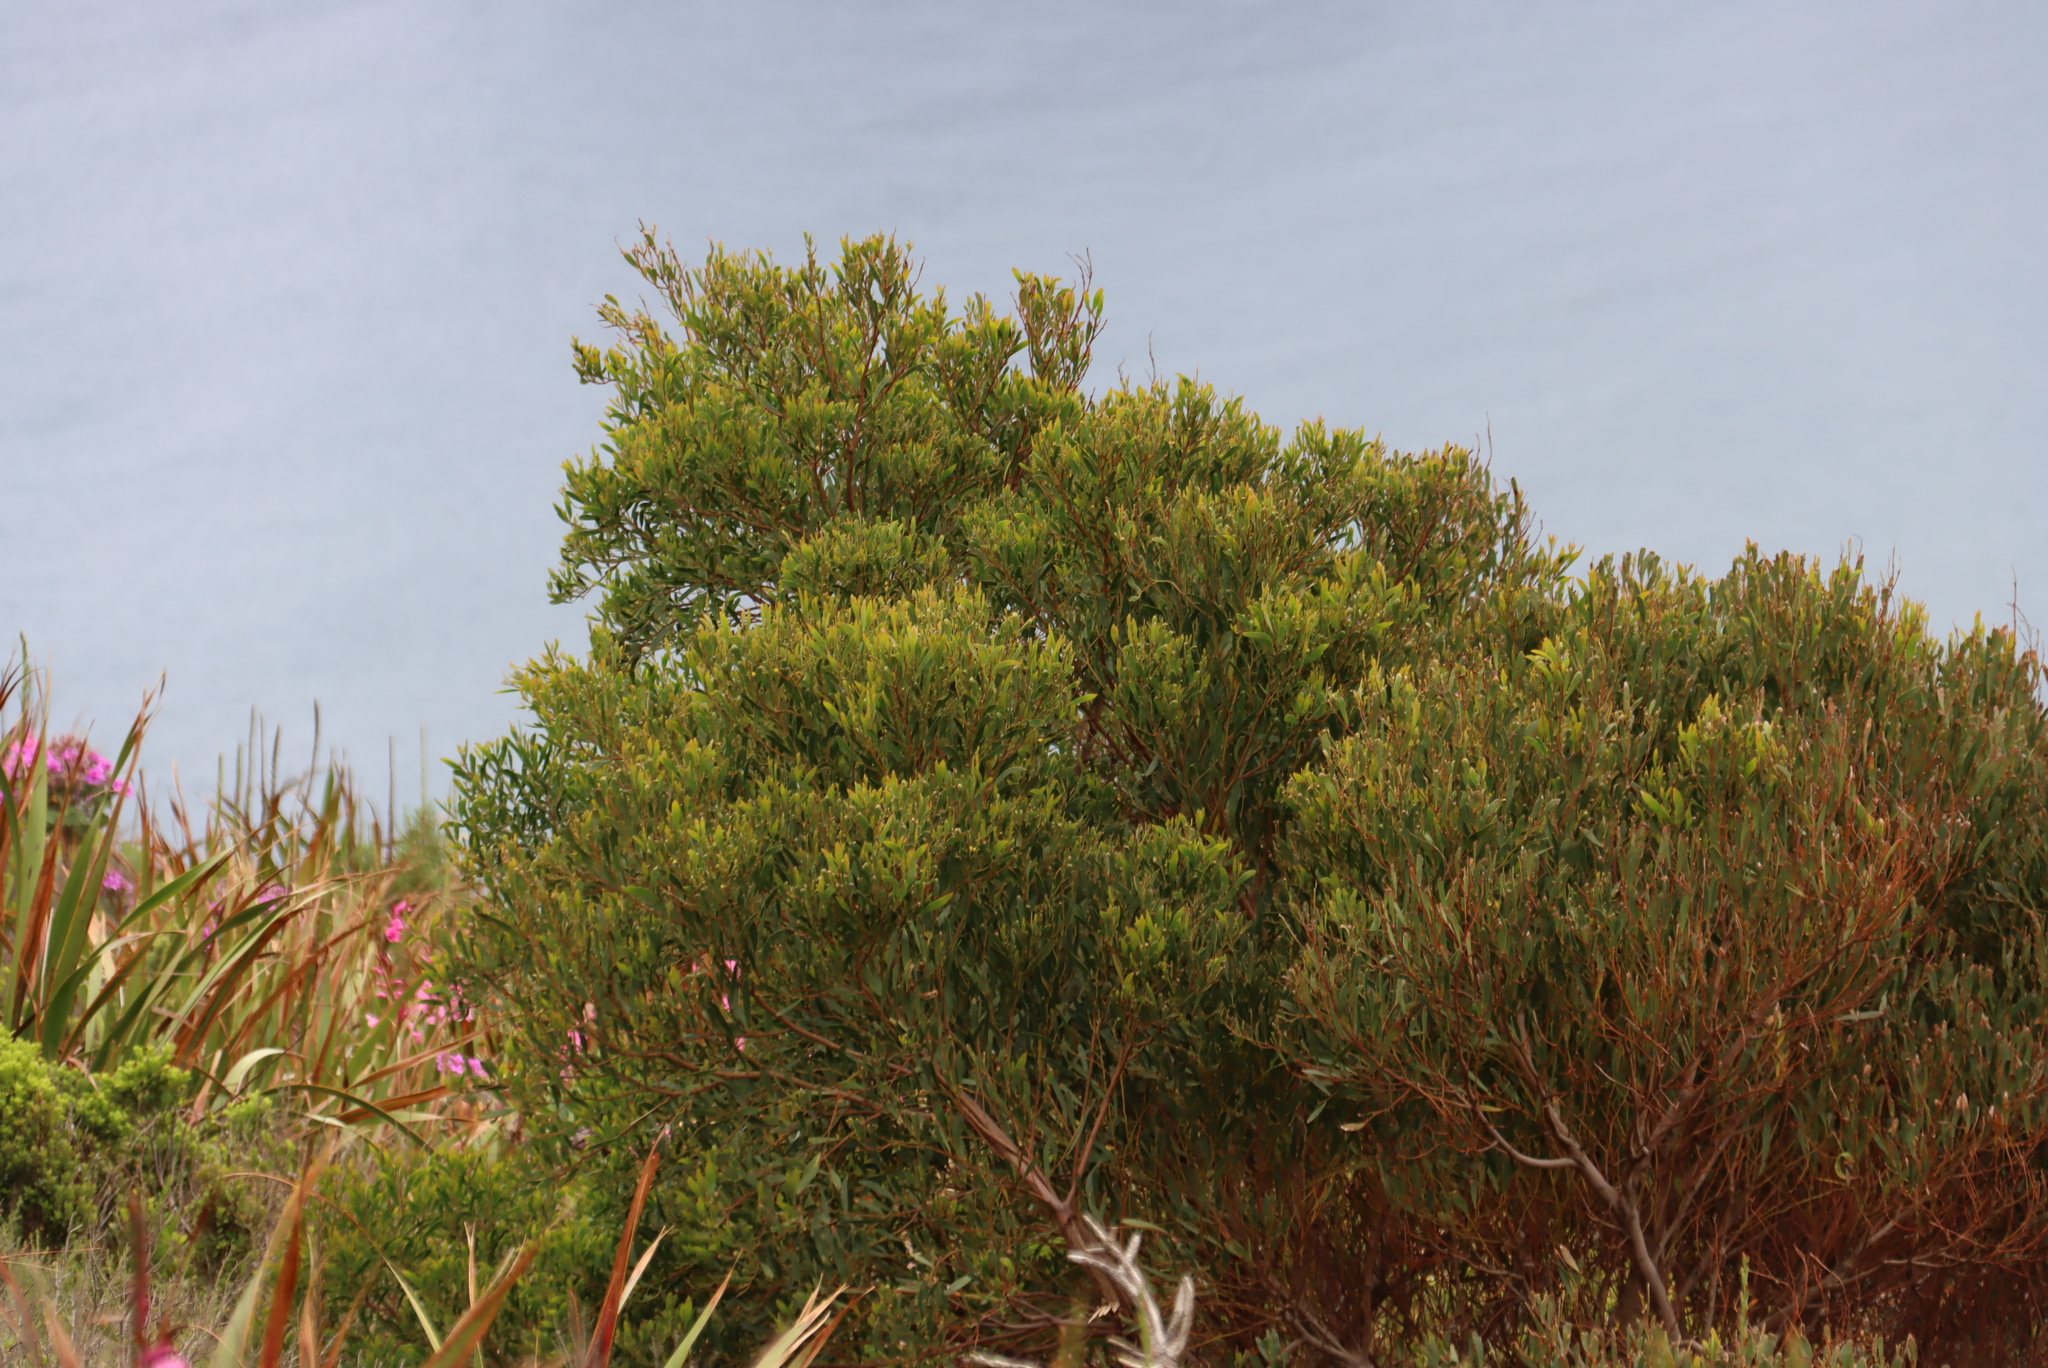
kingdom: Plantae
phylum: Tracheophyta
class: Magnoliopsida
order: Fabales
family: Fabaceae
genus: Acacia
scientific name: Acacia cyclops
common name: Coastal wattle
